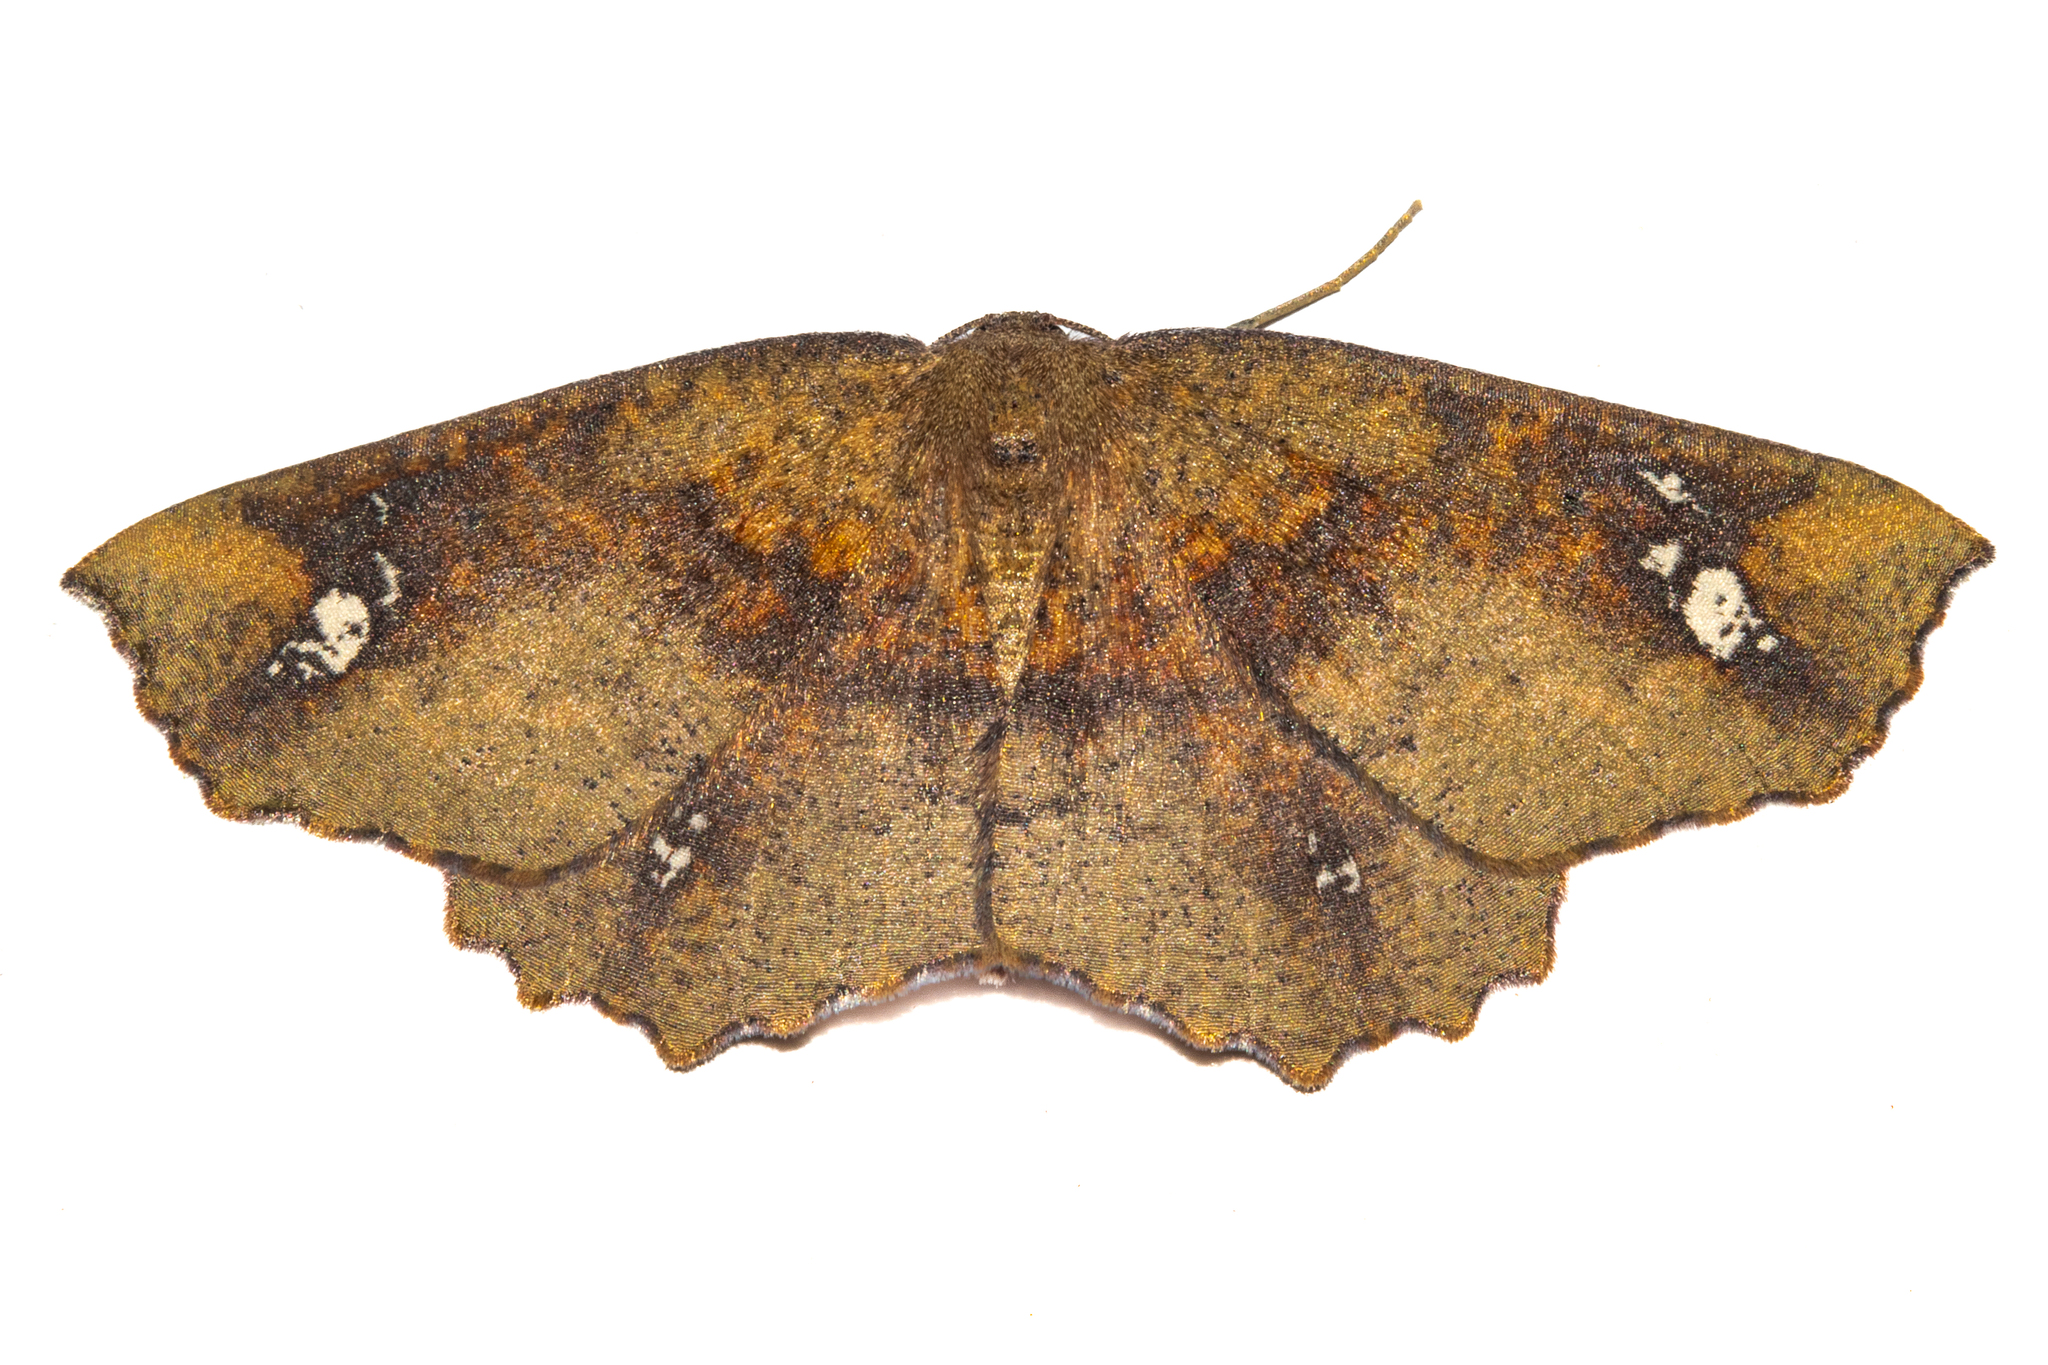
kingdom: Animalia
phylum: Arthropoda
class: Insecta
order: Lepidoptera
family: Geometridae
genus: Xyridacma
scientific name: Xyridacma ustaria
